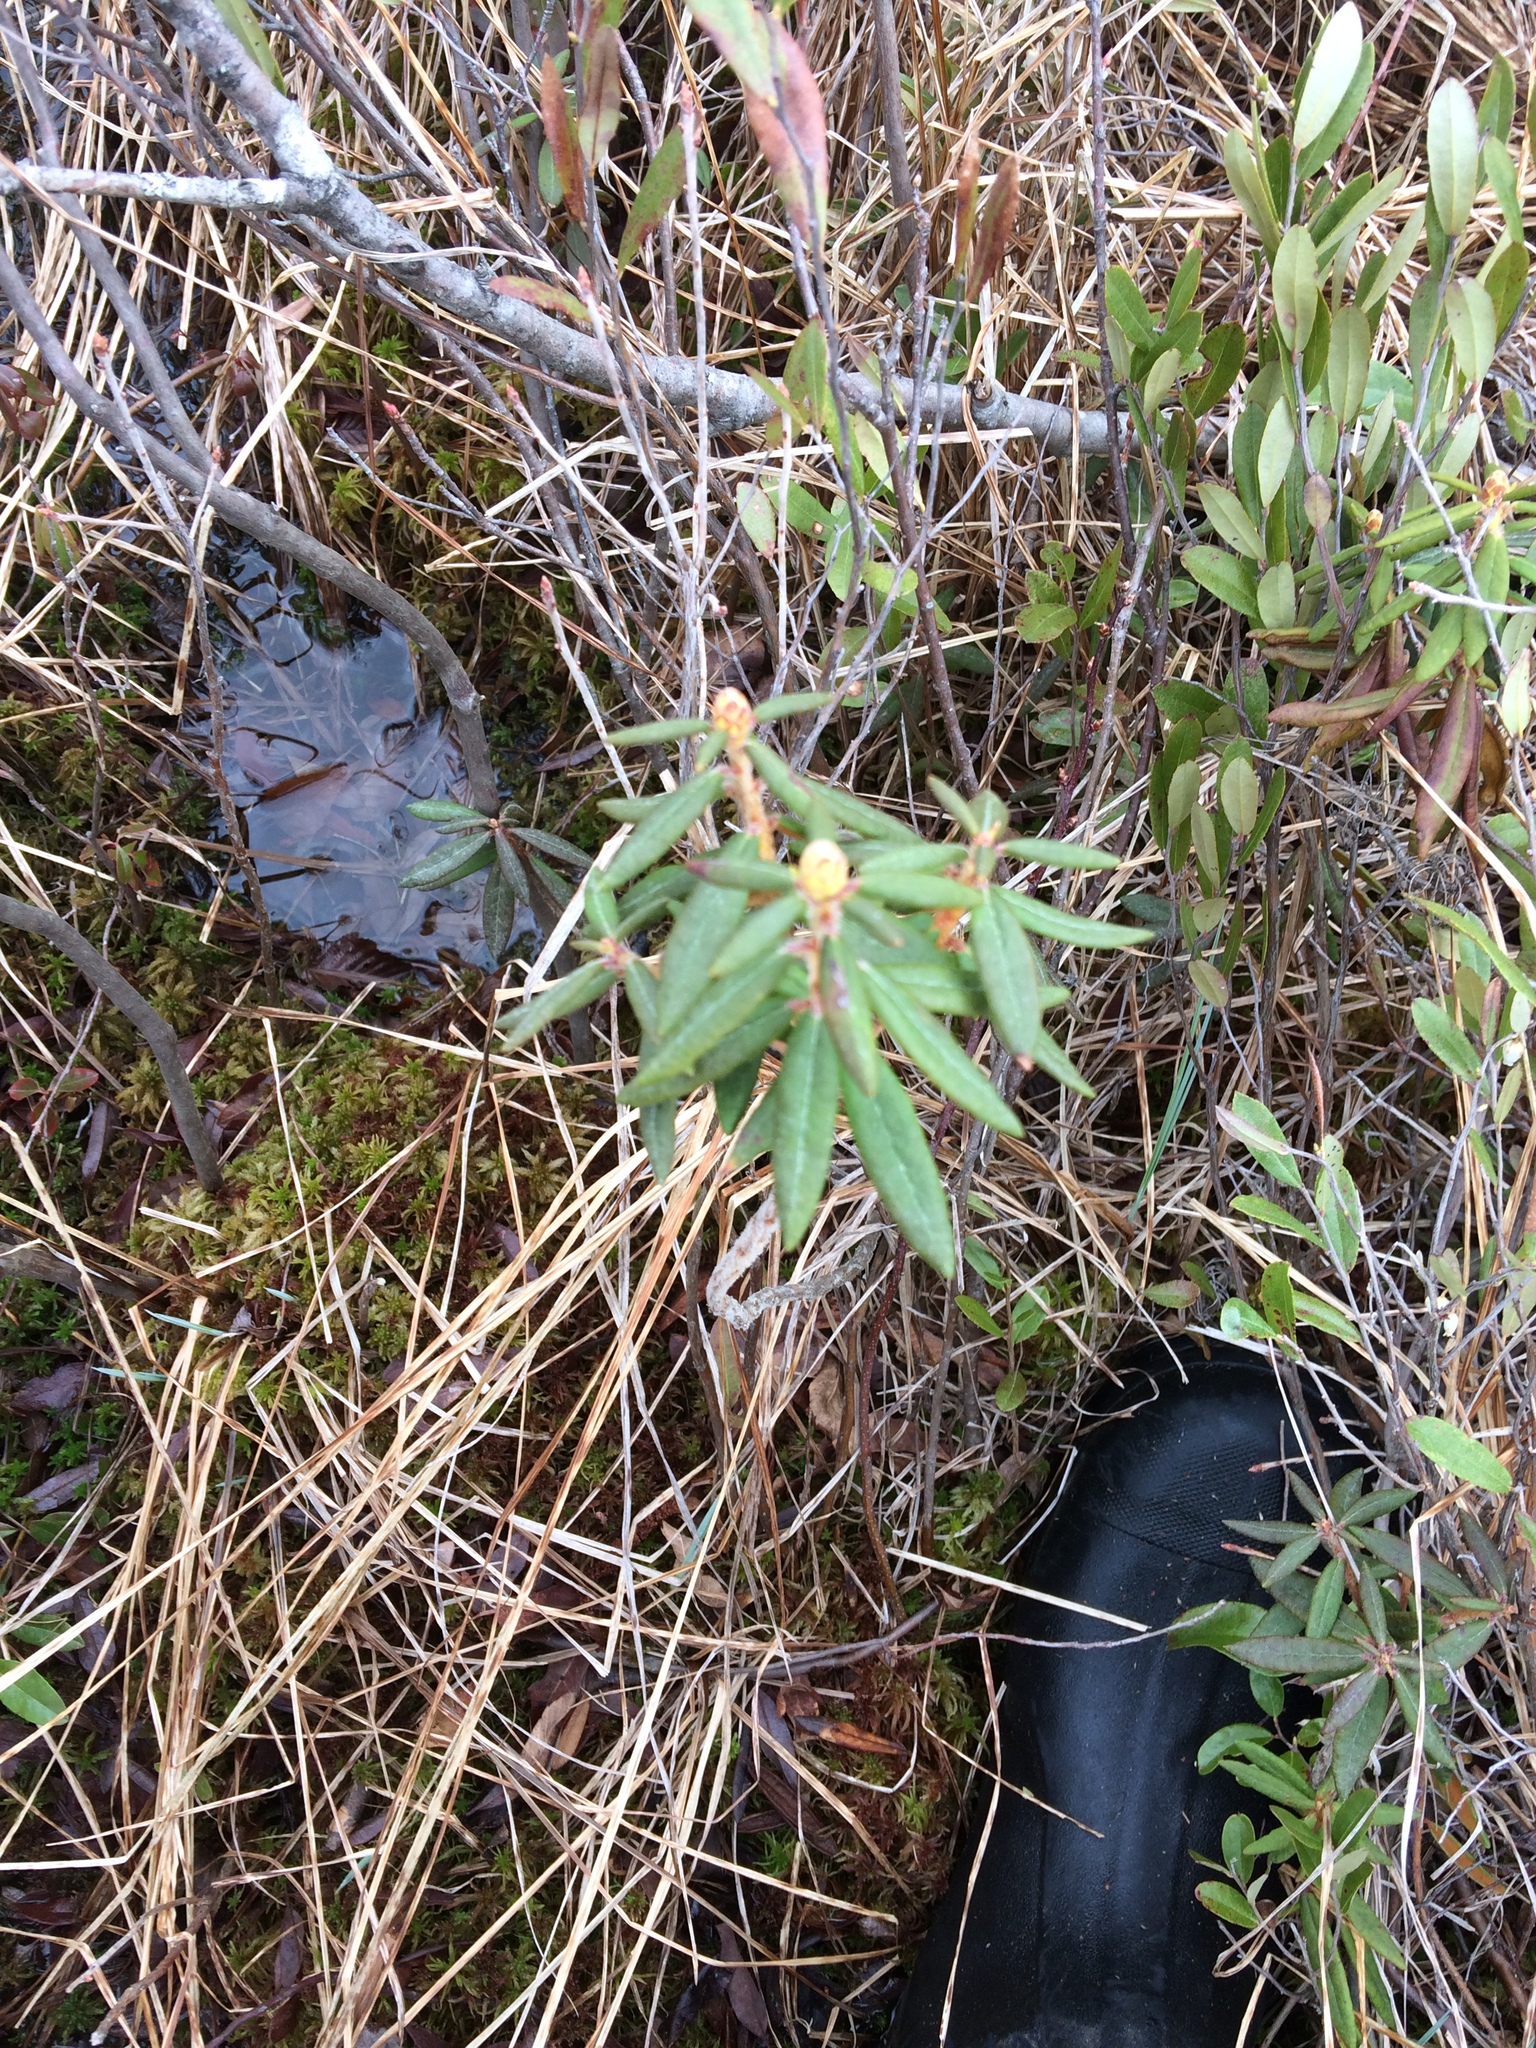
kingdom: Plantae
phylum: Tracheophyta
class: Magnoliopsida
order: Ericales
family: Ericaceae
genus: Rhododendron
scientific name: Rhododendron groenlandicum
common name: Bog labrador tea
